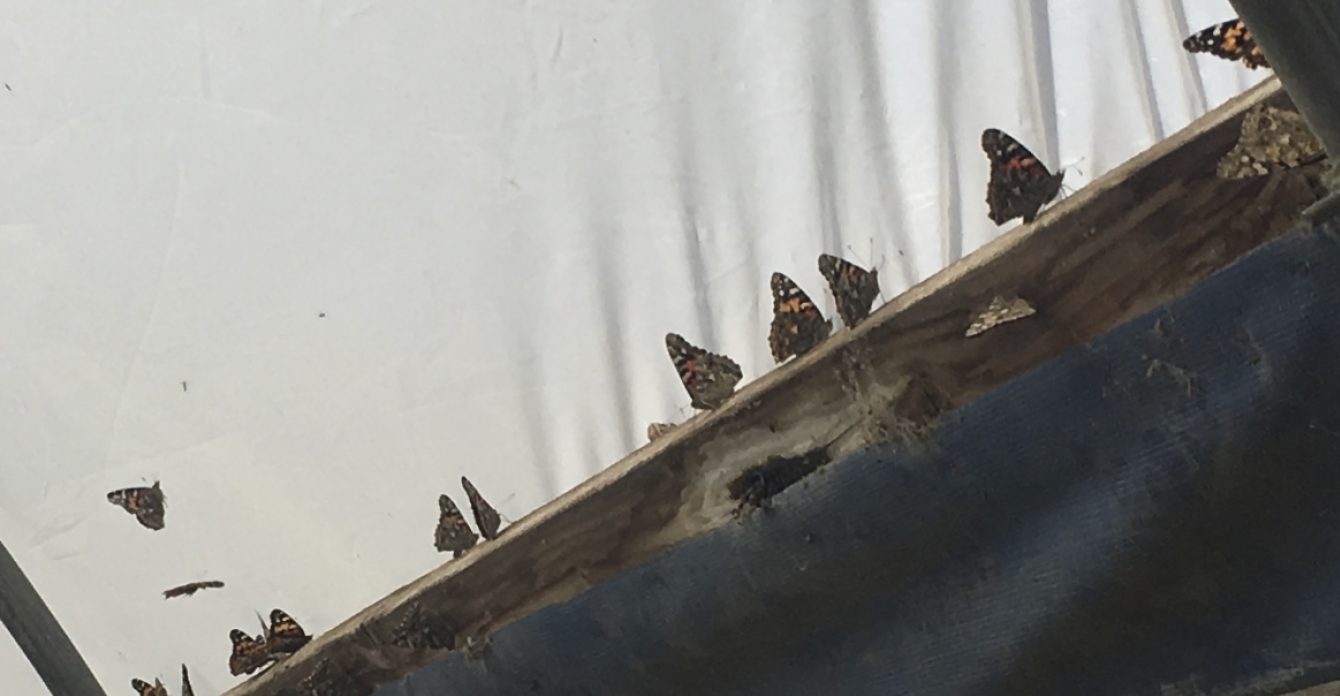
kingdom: Animalia
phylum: Arthropoda
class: Insecta
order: Lepidoptera
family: Nymphalidae
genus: Vanessa
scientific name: Vanessa cardui
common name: Painted lady
